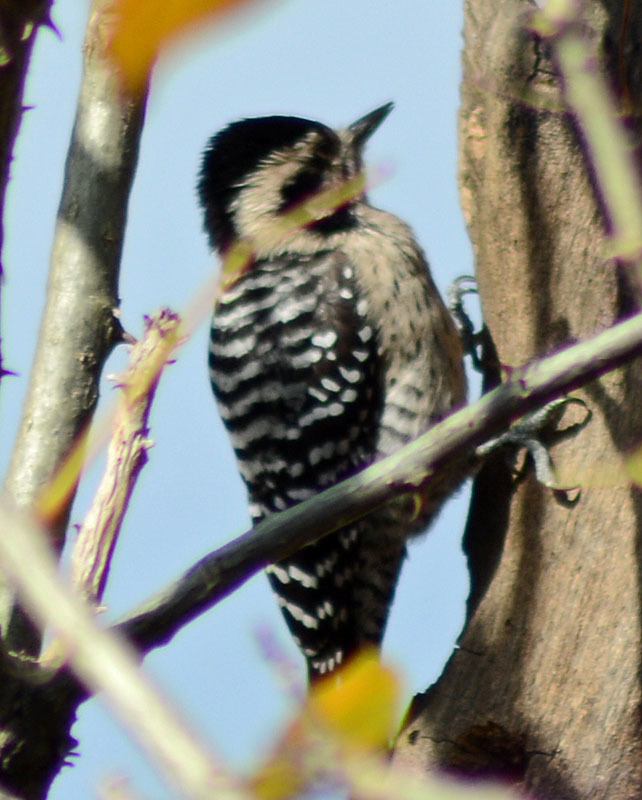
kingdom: Animalia
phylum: Chordata
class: Aves
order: Piciformes
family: Picidae
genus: Dryobates
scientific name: Dryobates scalaris
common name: Ladder-backed woodpecker
